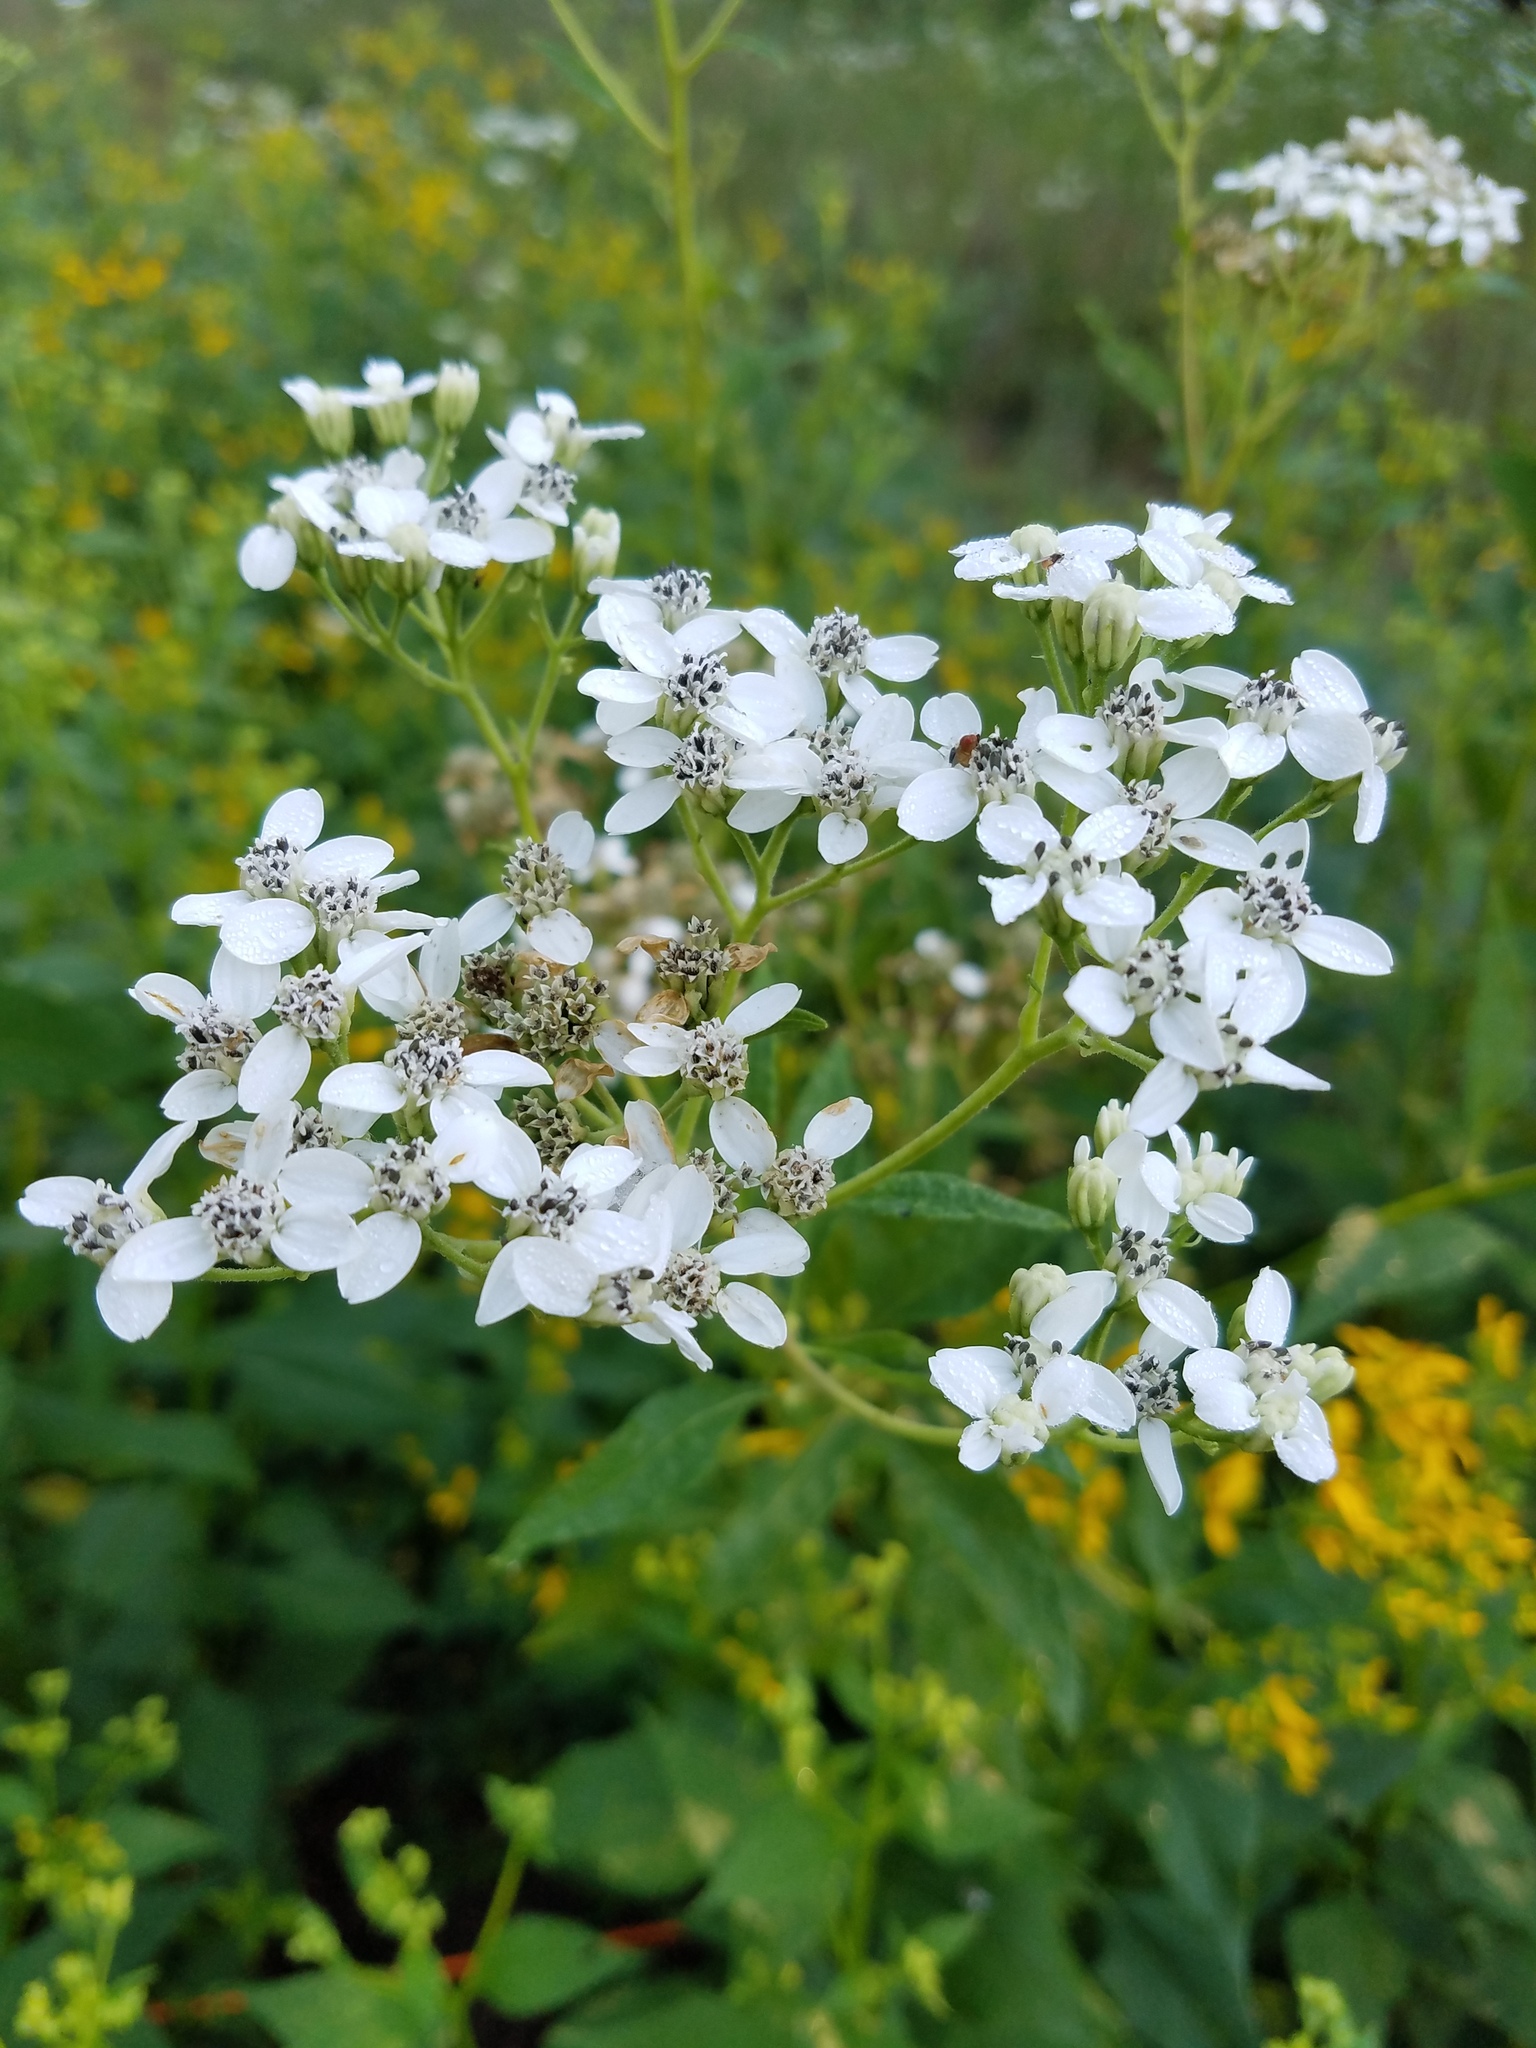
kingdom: Plantae
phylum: Tracheophyta
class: Magnoliopsida
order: Asterales
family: Asteraceae
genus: Verbesina
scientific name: Verbesina virginica
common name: Frostweed
